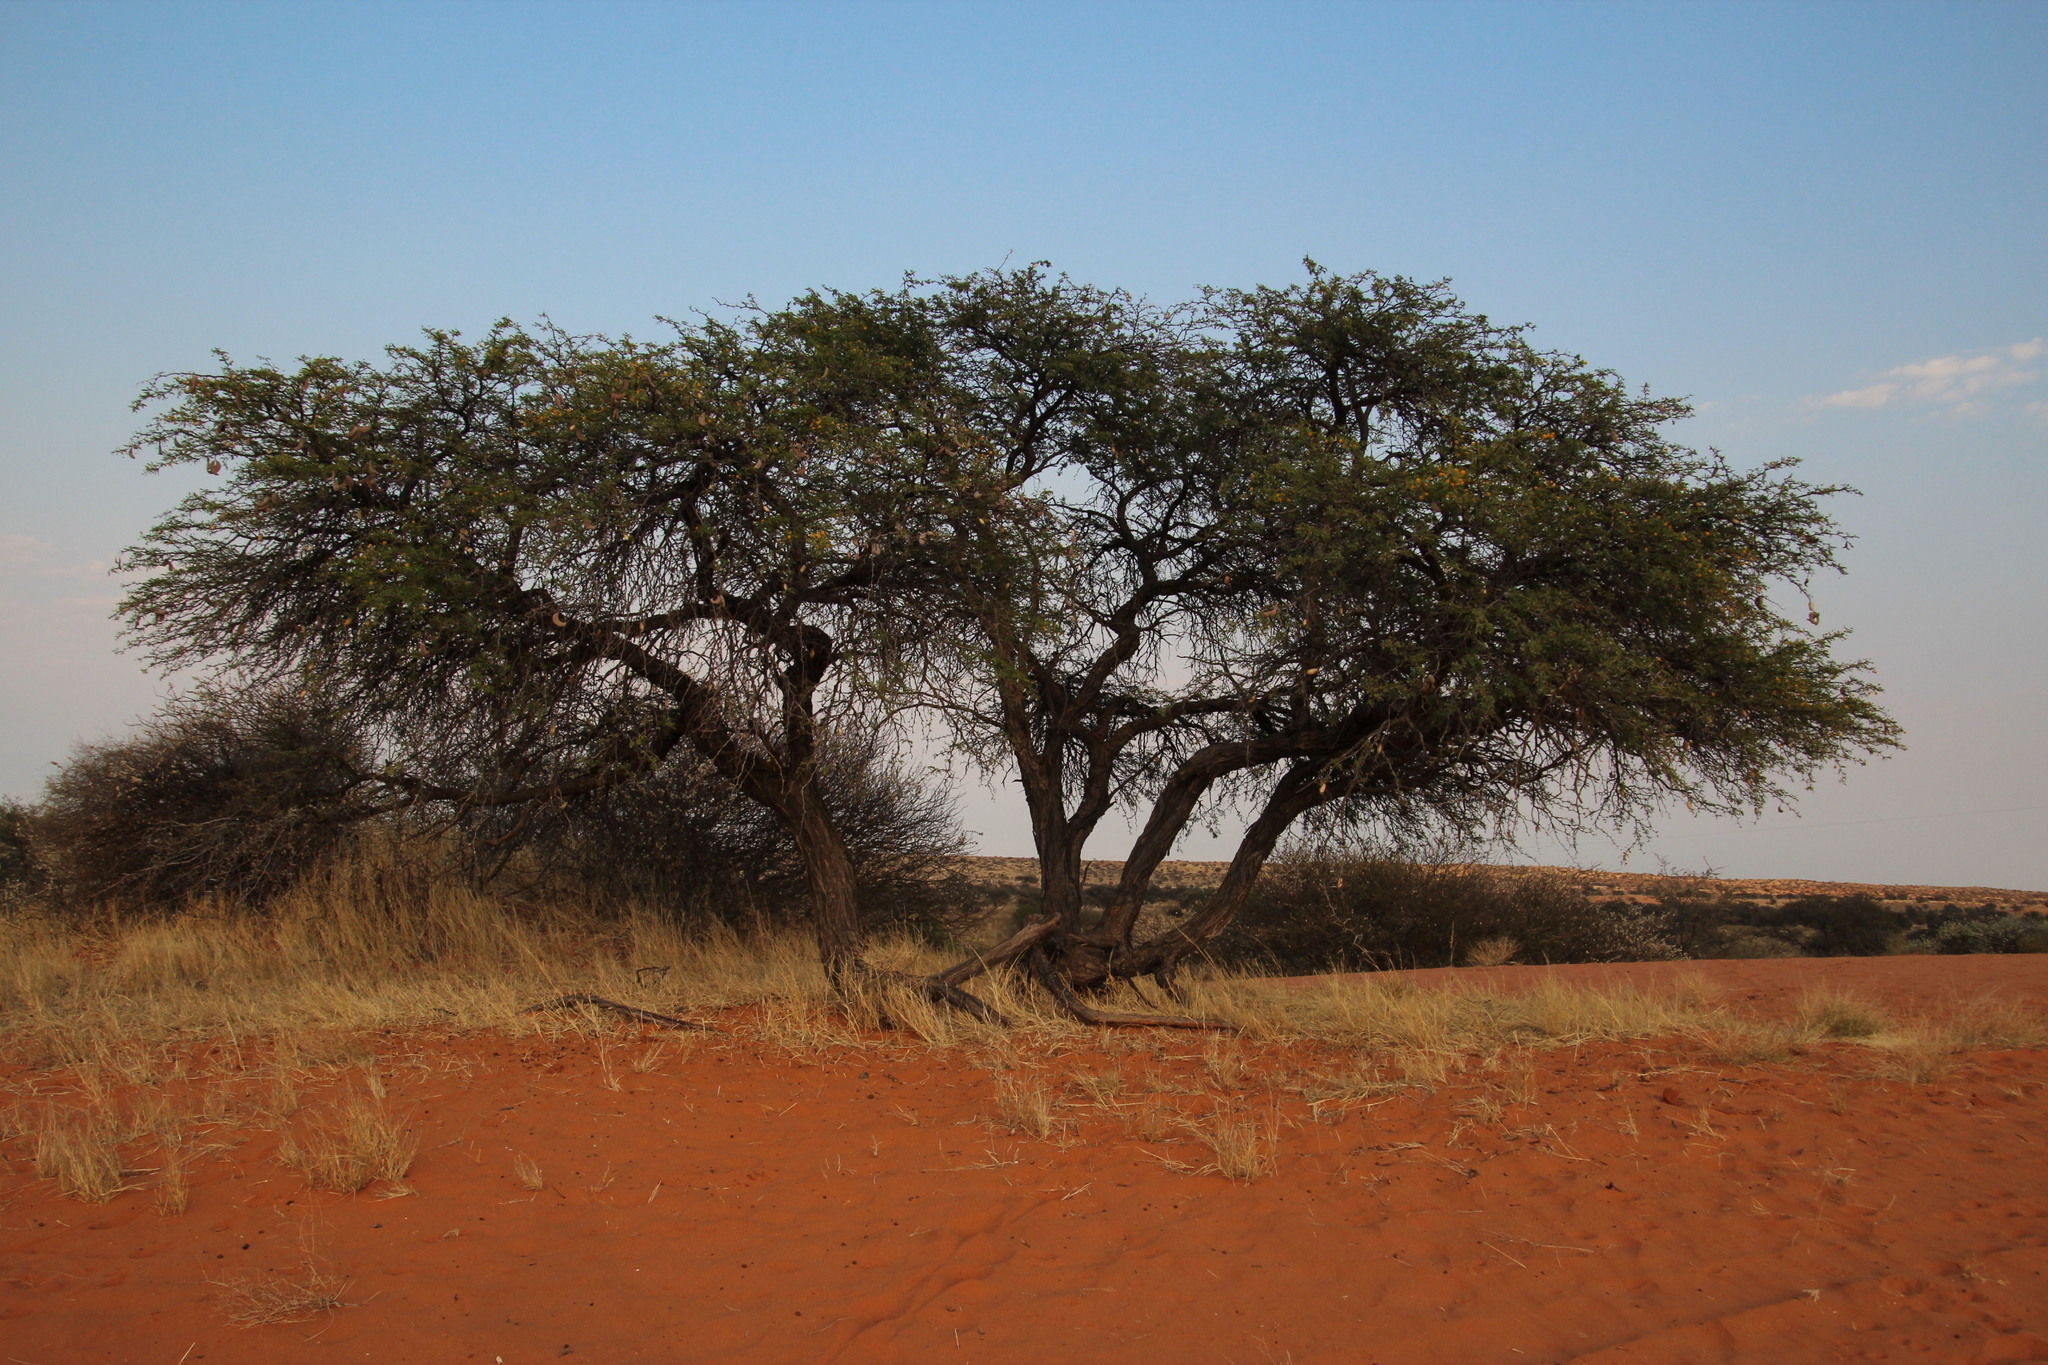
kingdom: Plantae
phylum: Tracheophyta
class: Magnoliopsida
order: Fabales
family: Fabaceae
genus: Vachellia
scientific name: Vachellia erioloba
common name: Camel thorn
